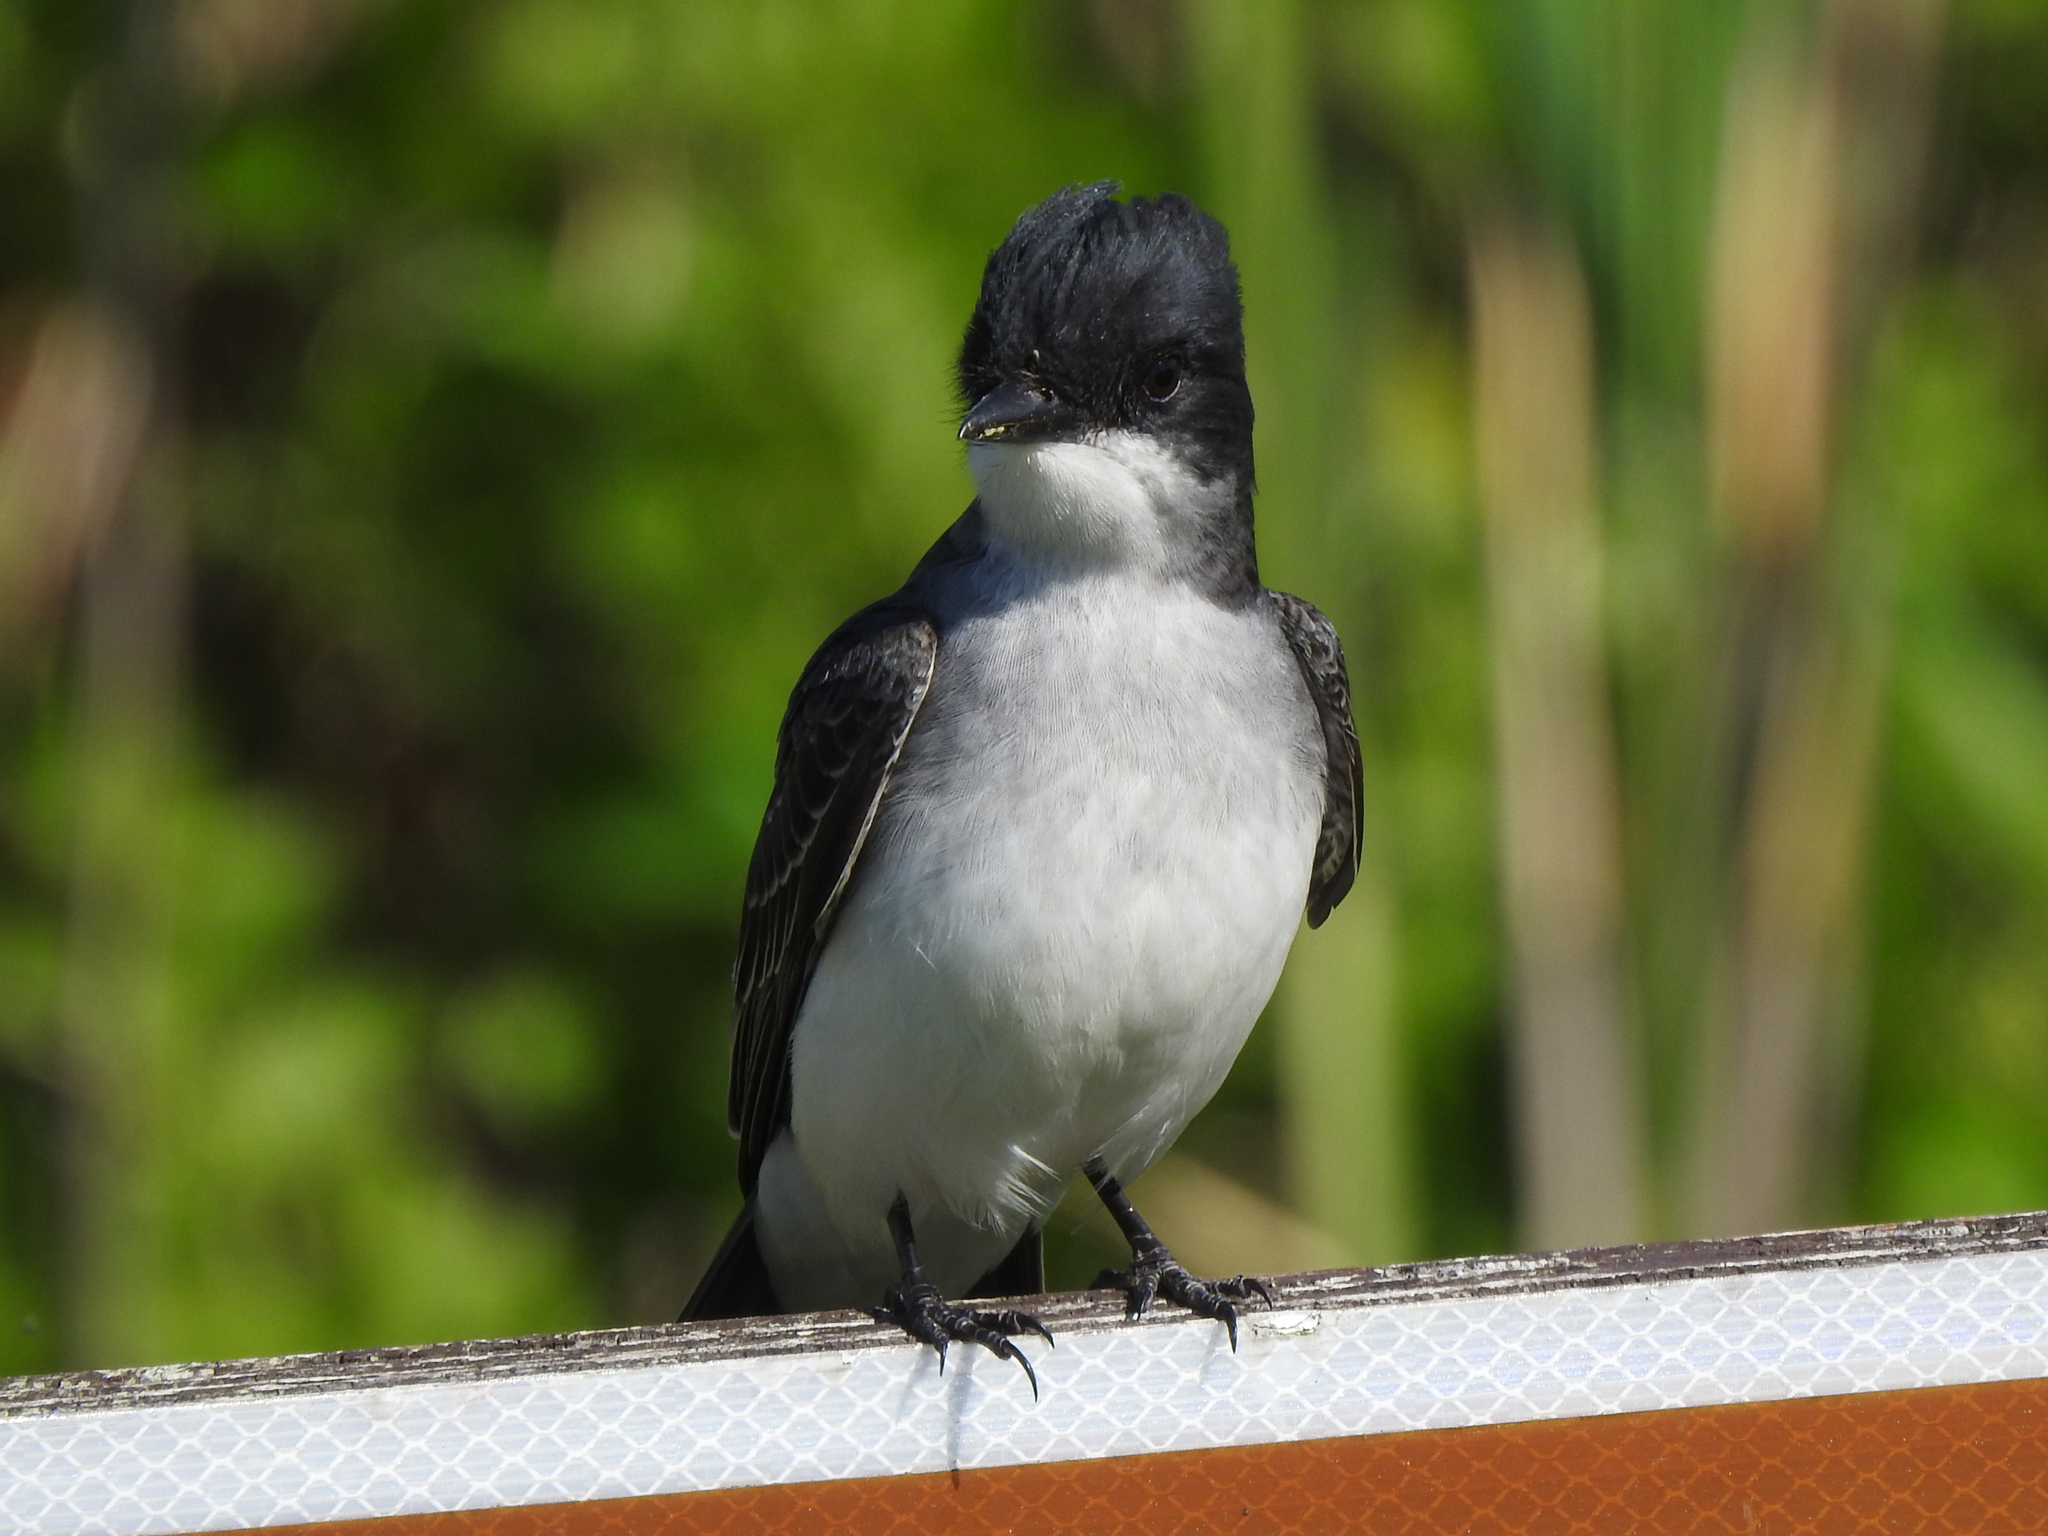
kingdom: Animalia
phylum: Chordata
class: Aves
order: Passeriformes
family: Tyrannidae
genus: Tyrannus
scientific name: Tyrannus tyrannus
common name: Eastern kingbird
